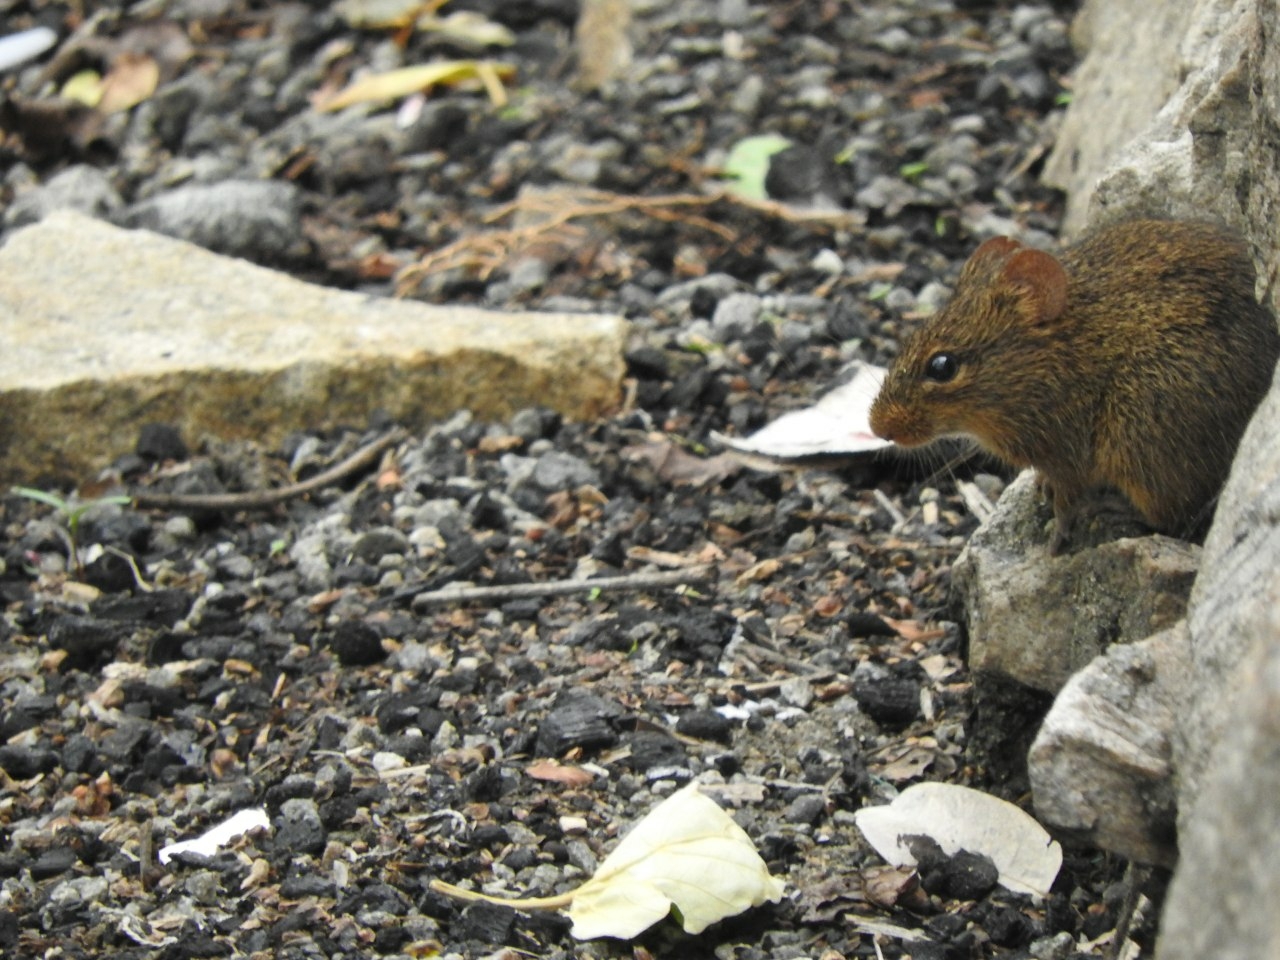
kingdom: Animalia
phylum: Chordata
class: Mammalia
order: Rodentia
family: Muridae
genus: Golunda
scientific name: Golunda ellioti
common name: Indian bush rat
